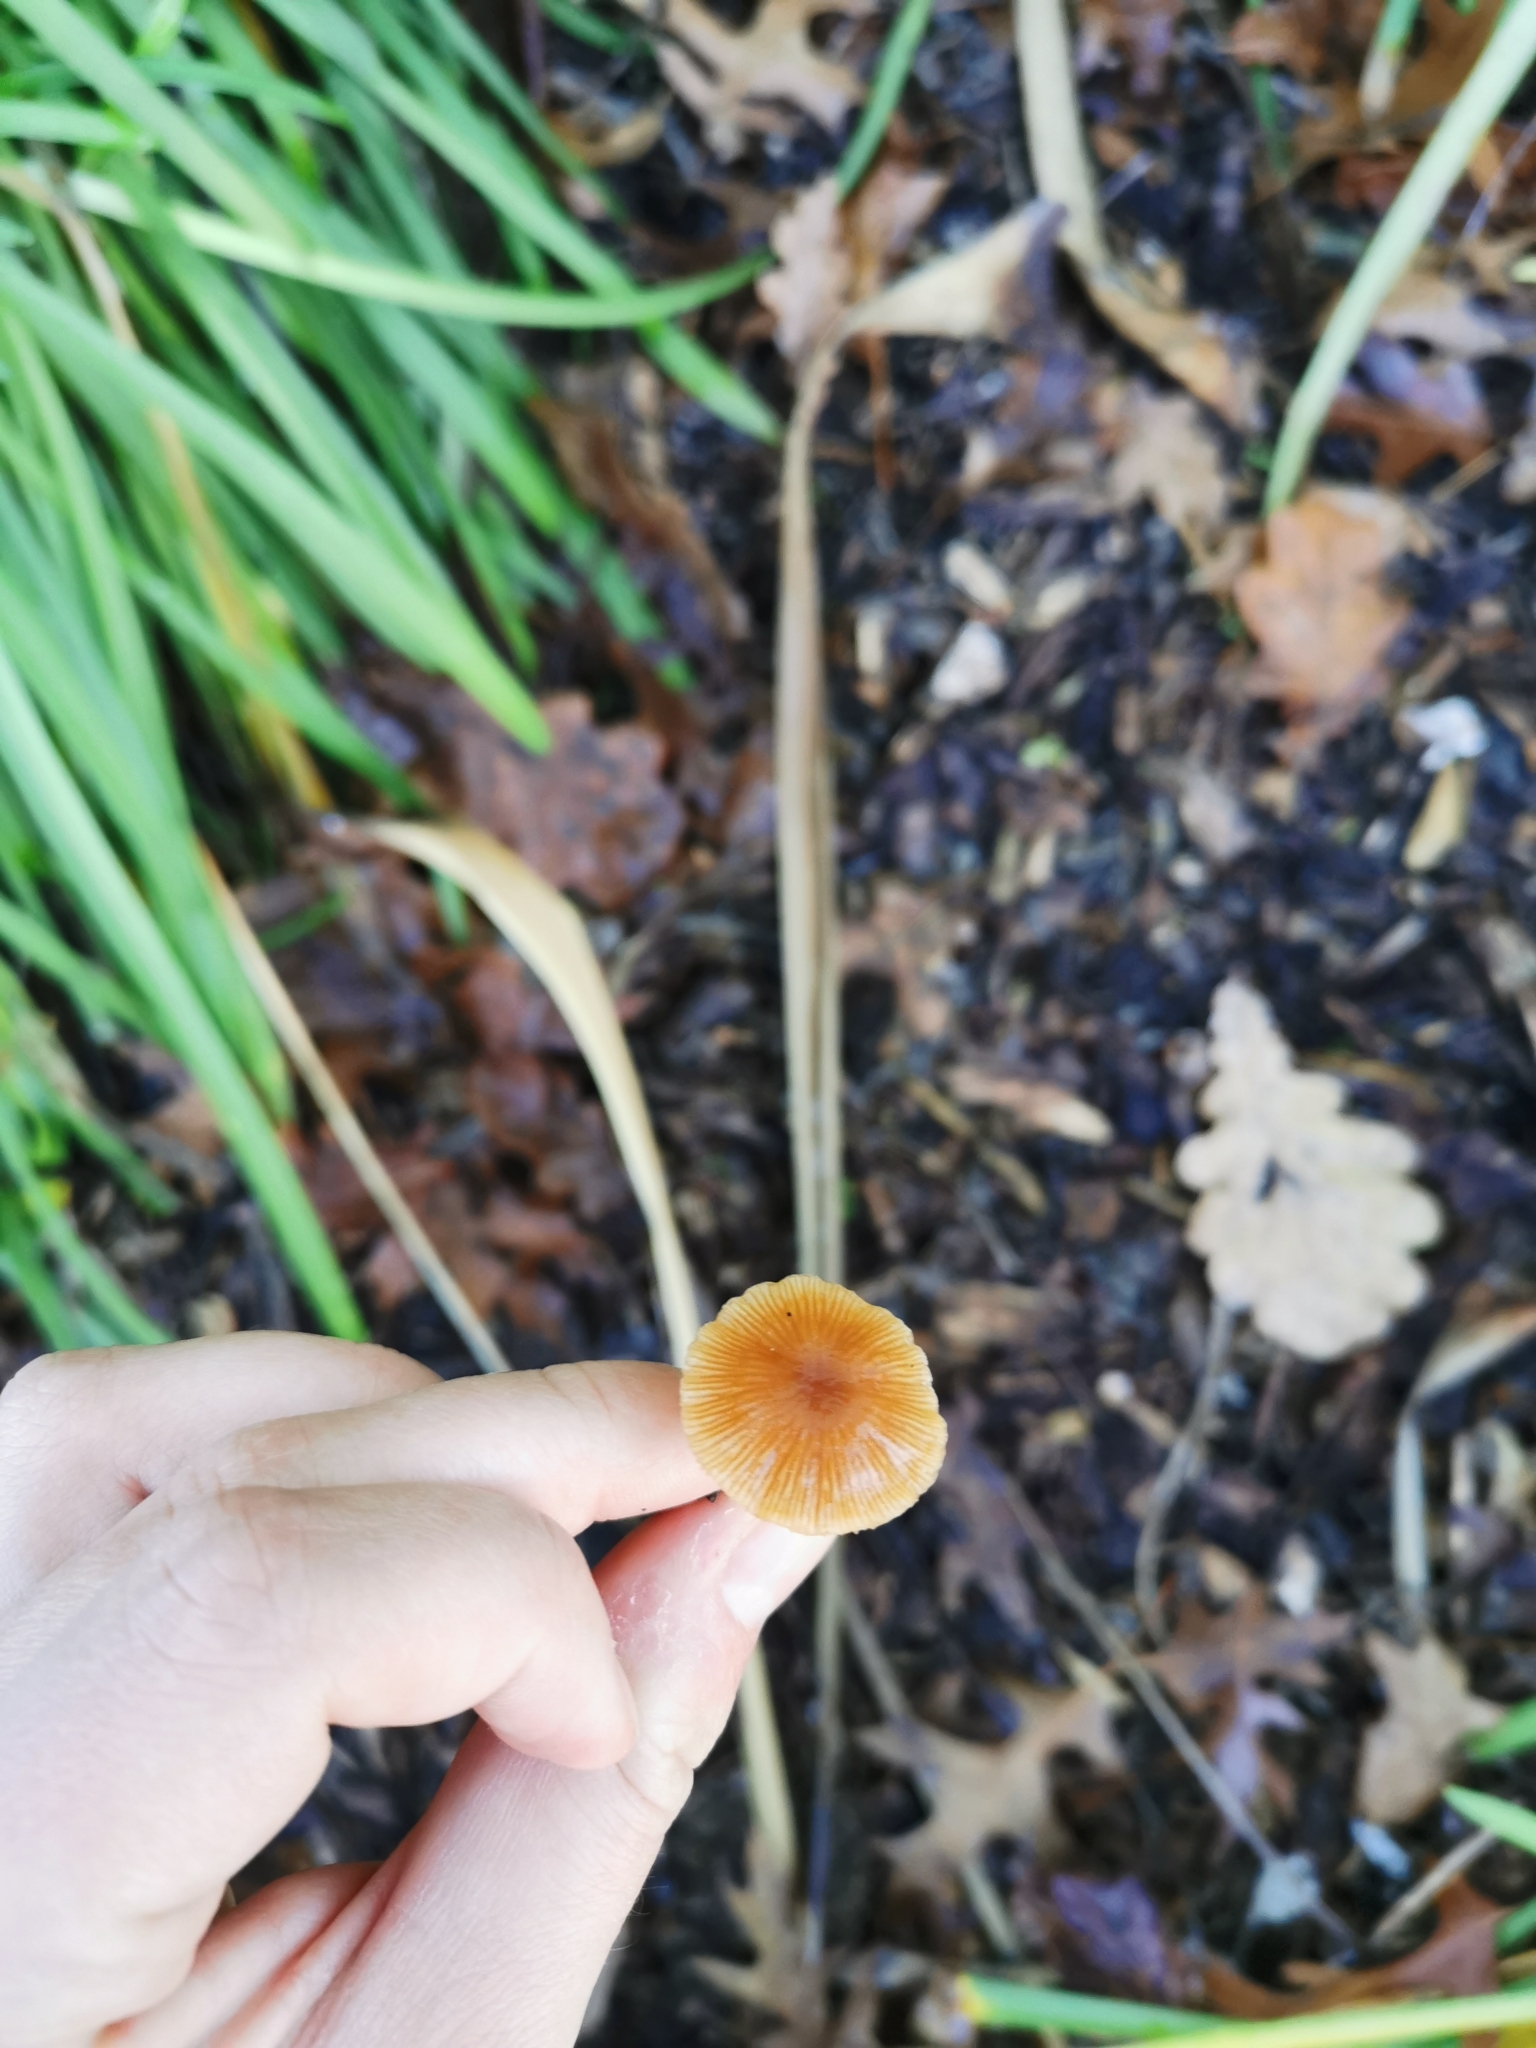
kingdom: Fungi
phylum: Basidiomycota
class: Agaricomycetes
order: Agaricales
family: Tubariaceae
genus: Tubaria
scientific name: Tubaria furfuracea
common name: Scurfy twiglet
